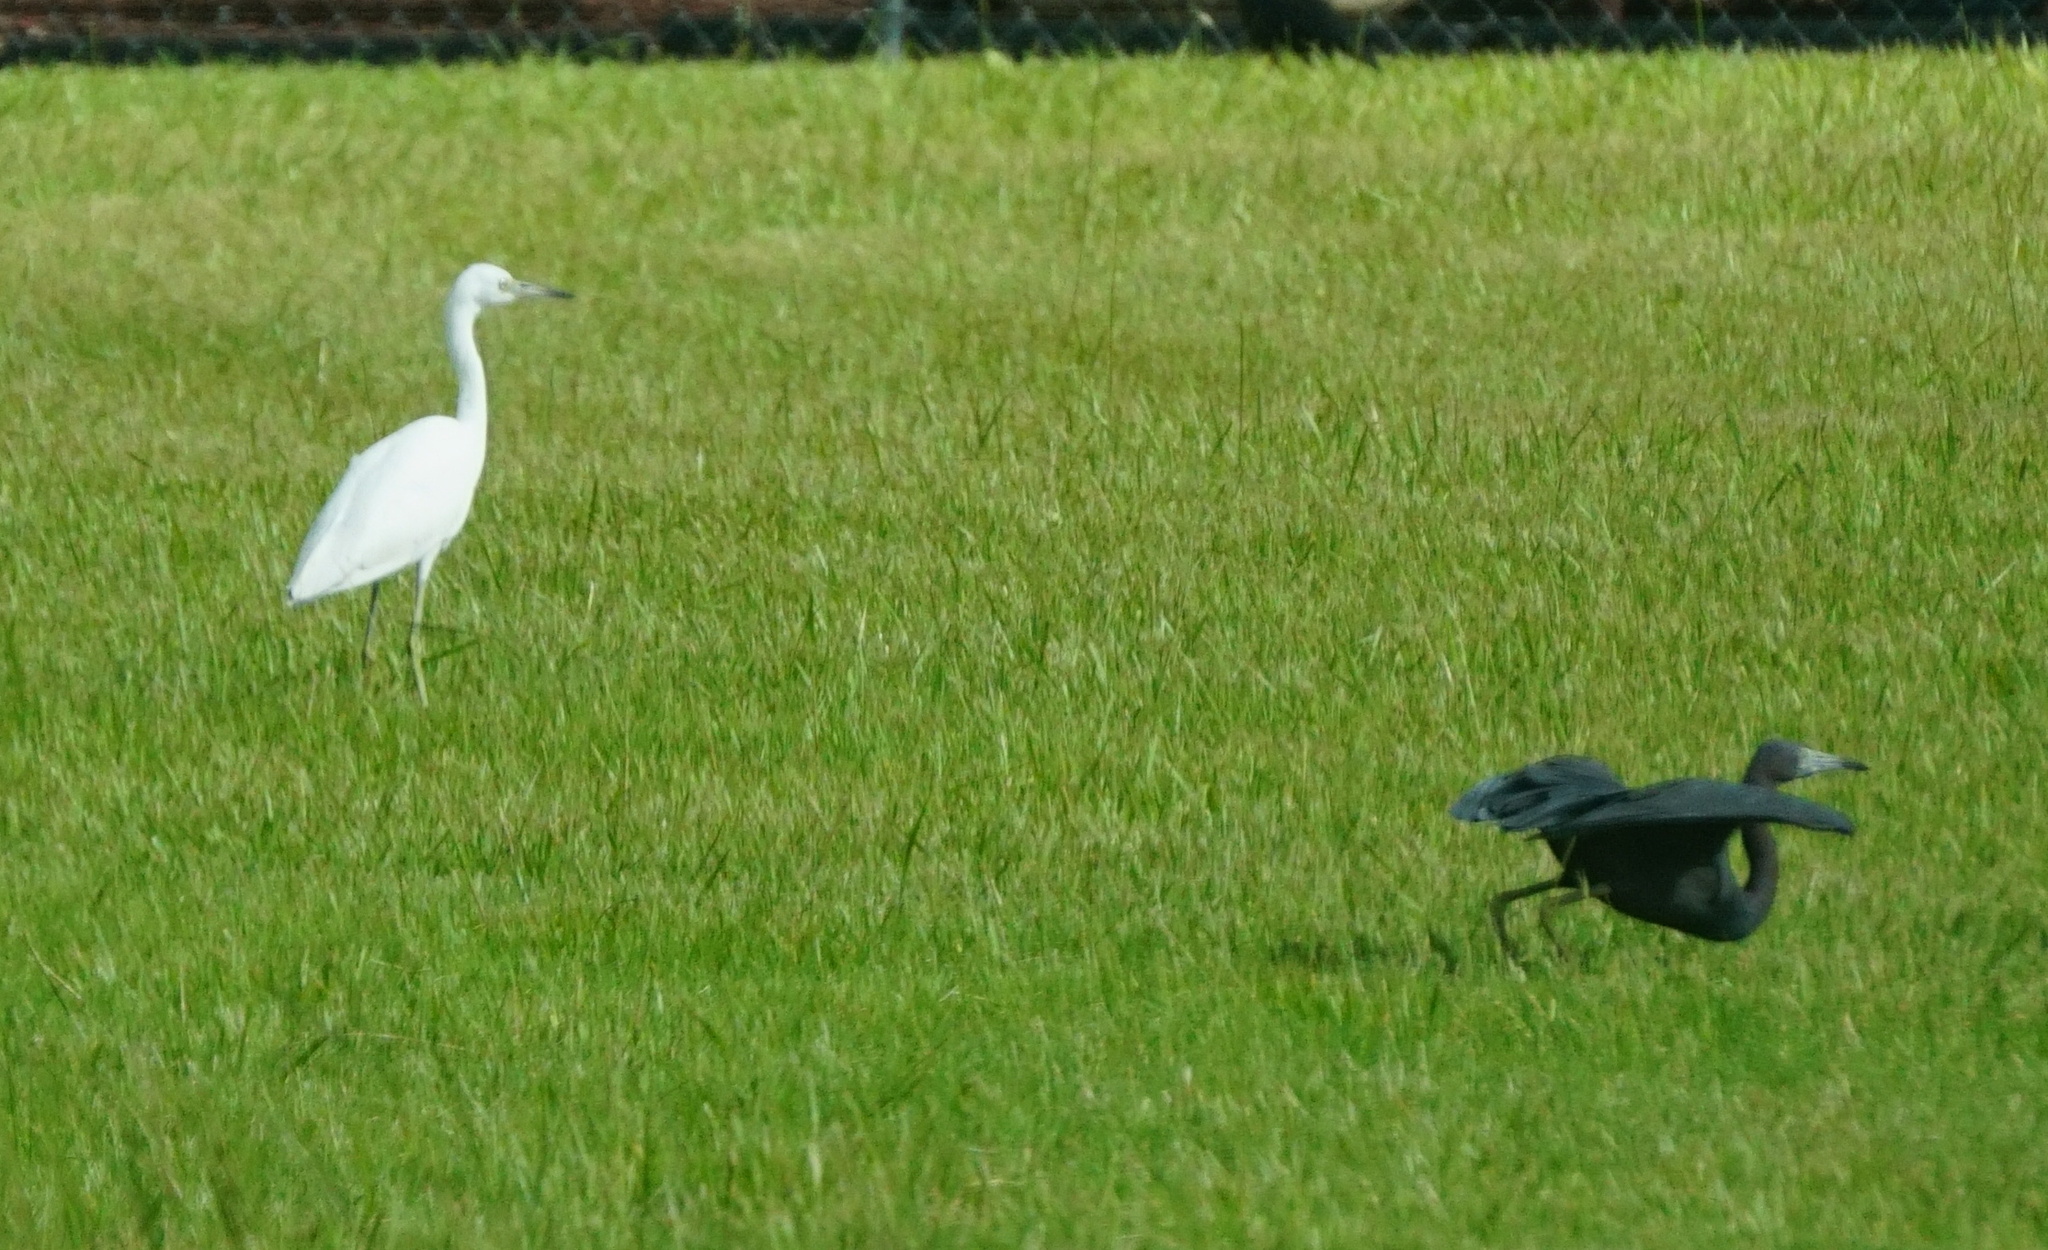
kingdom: Animalia
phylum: Chordata
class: Aves
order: Pelecaniformes
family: Ardeidae
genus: Egretta
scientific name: Egretta caerulea
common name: Little blue heron
